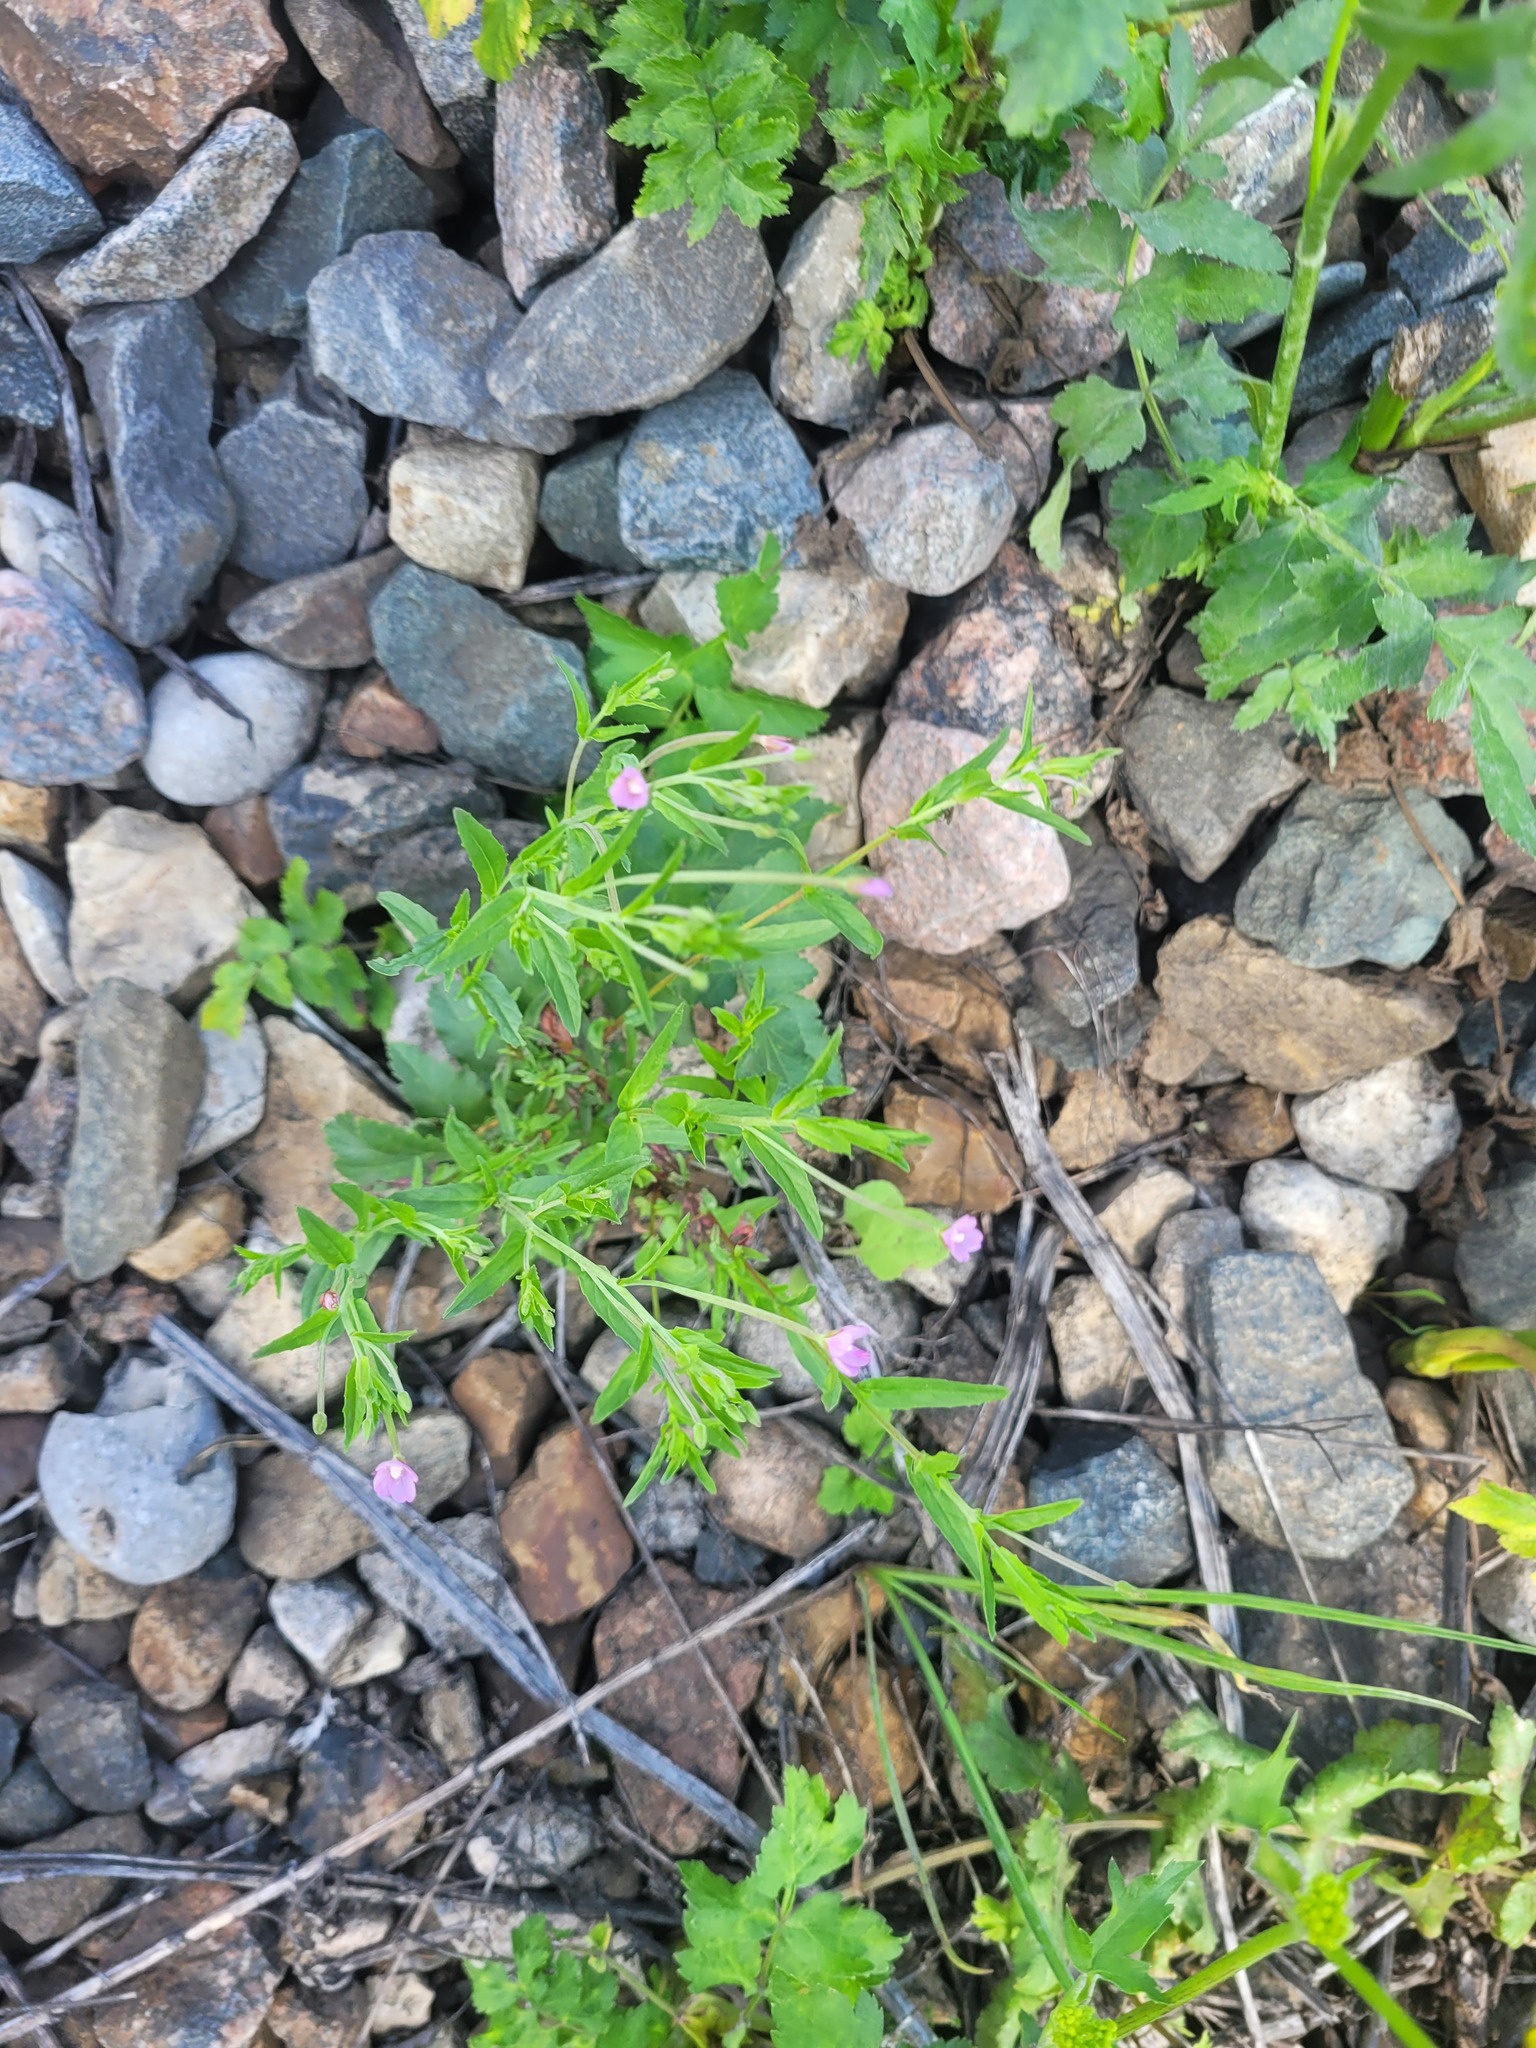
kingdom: Plantae
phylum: Tracheophyta
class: Magnoliopsida
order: Myrtales
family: Onagraceae
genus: Epilobium
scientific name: Epilobium lamyi
